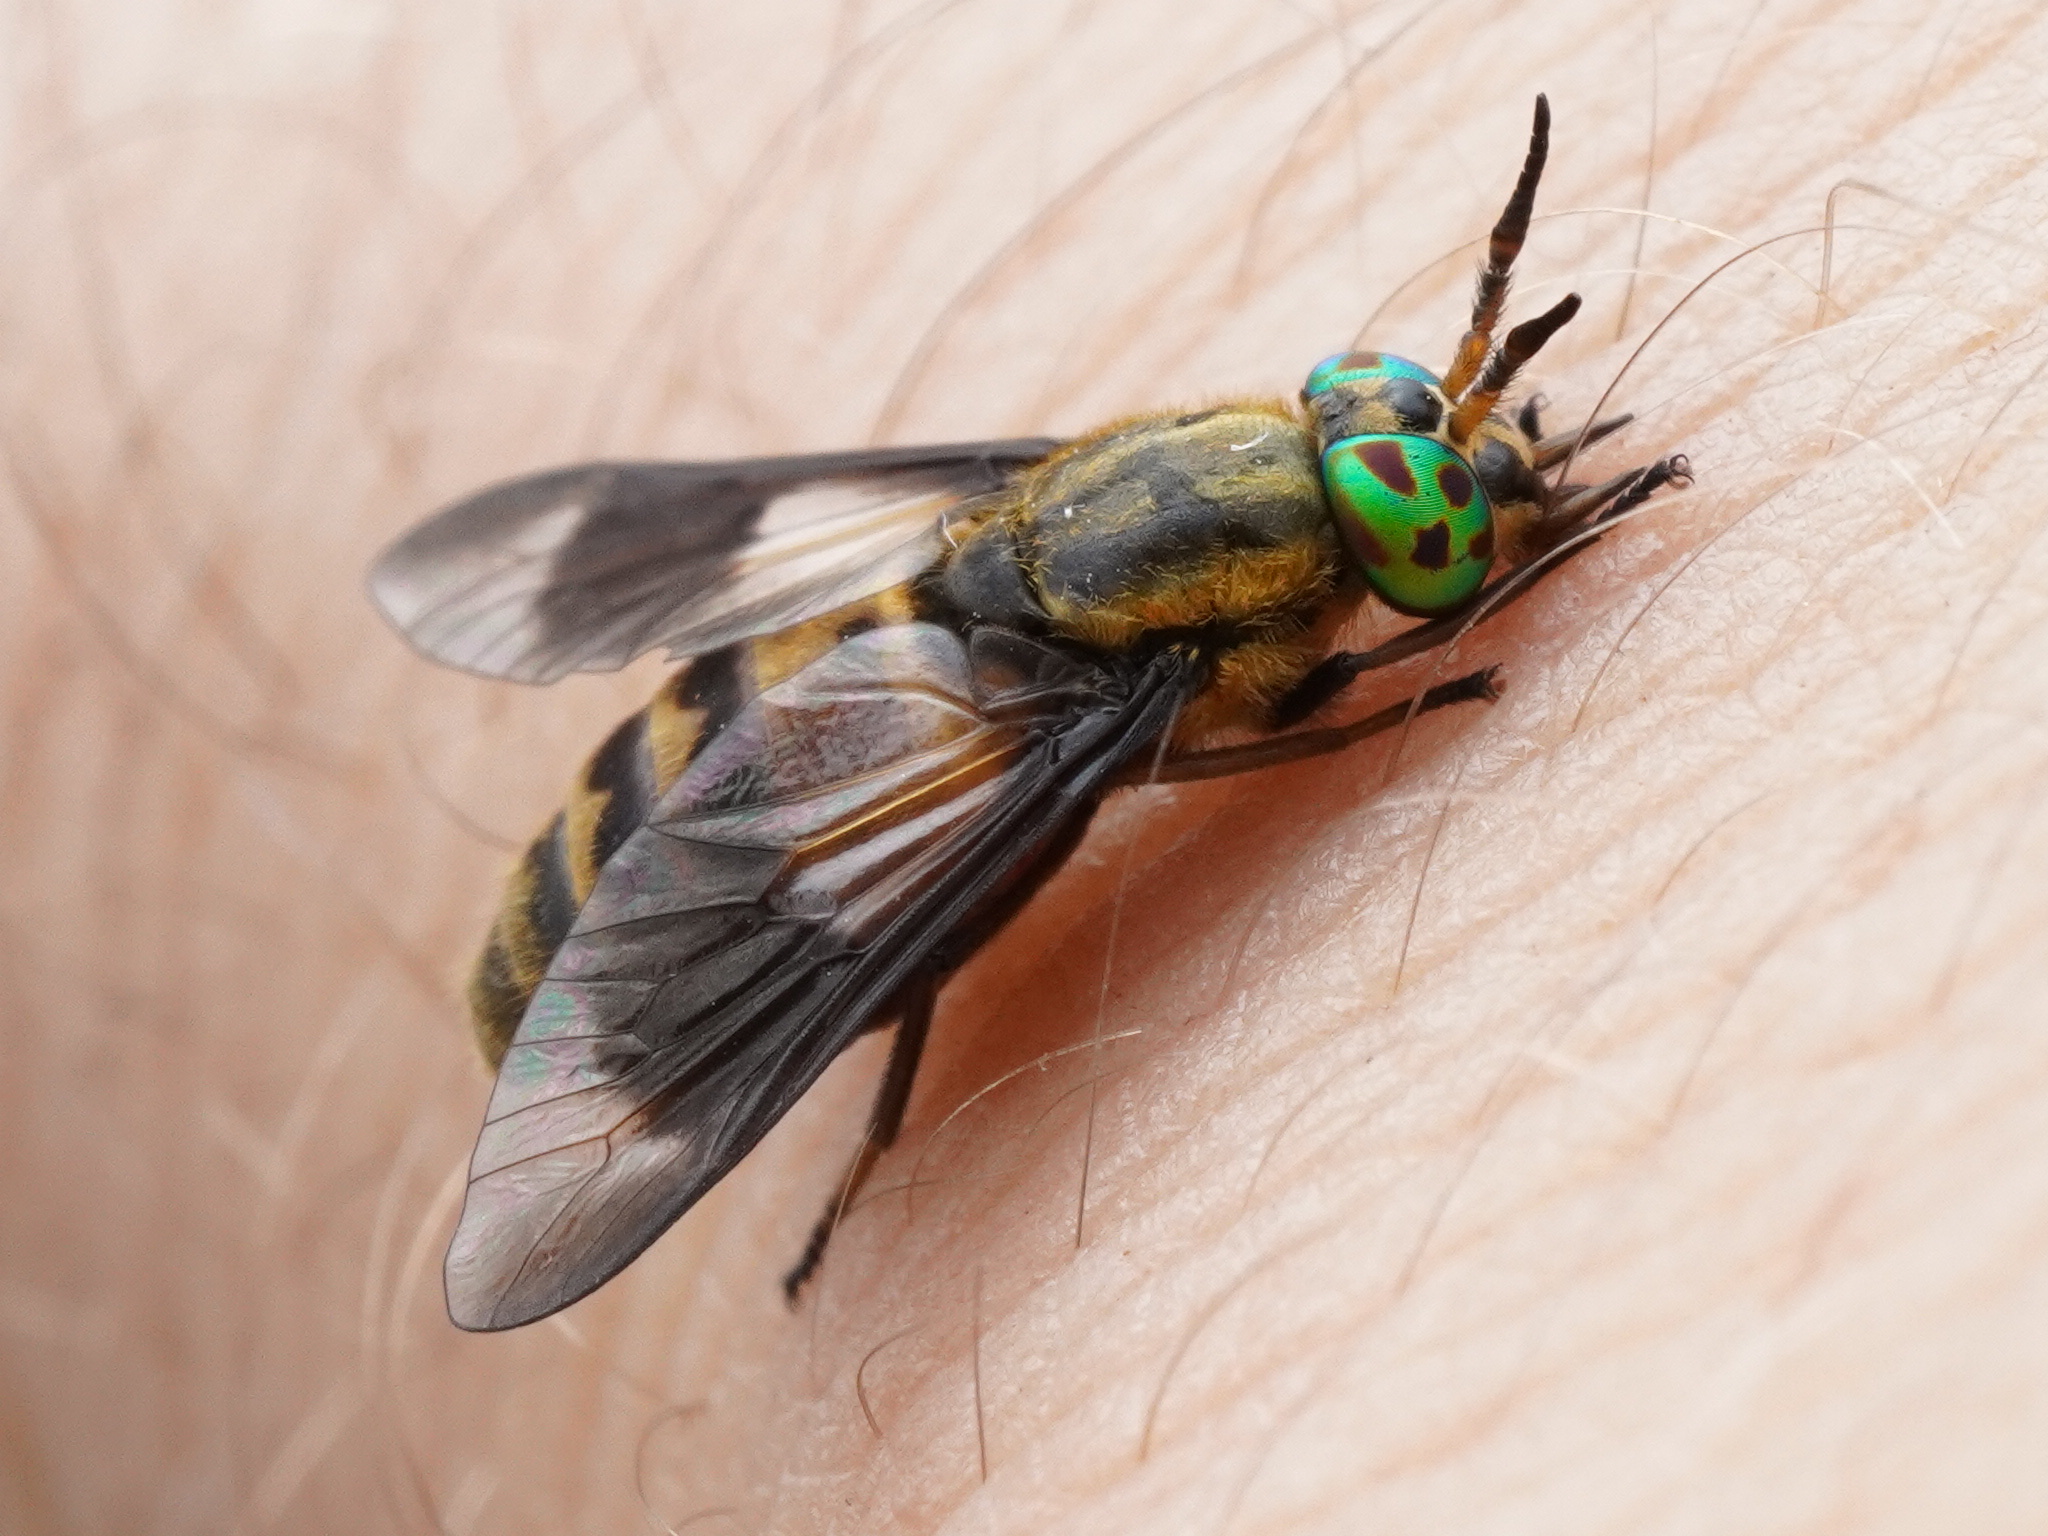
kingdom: Animalia
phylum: Arthropoda
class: Insecta
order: Diptera
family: Tabanidae
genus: Chrysops
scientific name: Chrysops viduatus
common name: Square-spot deerfly
